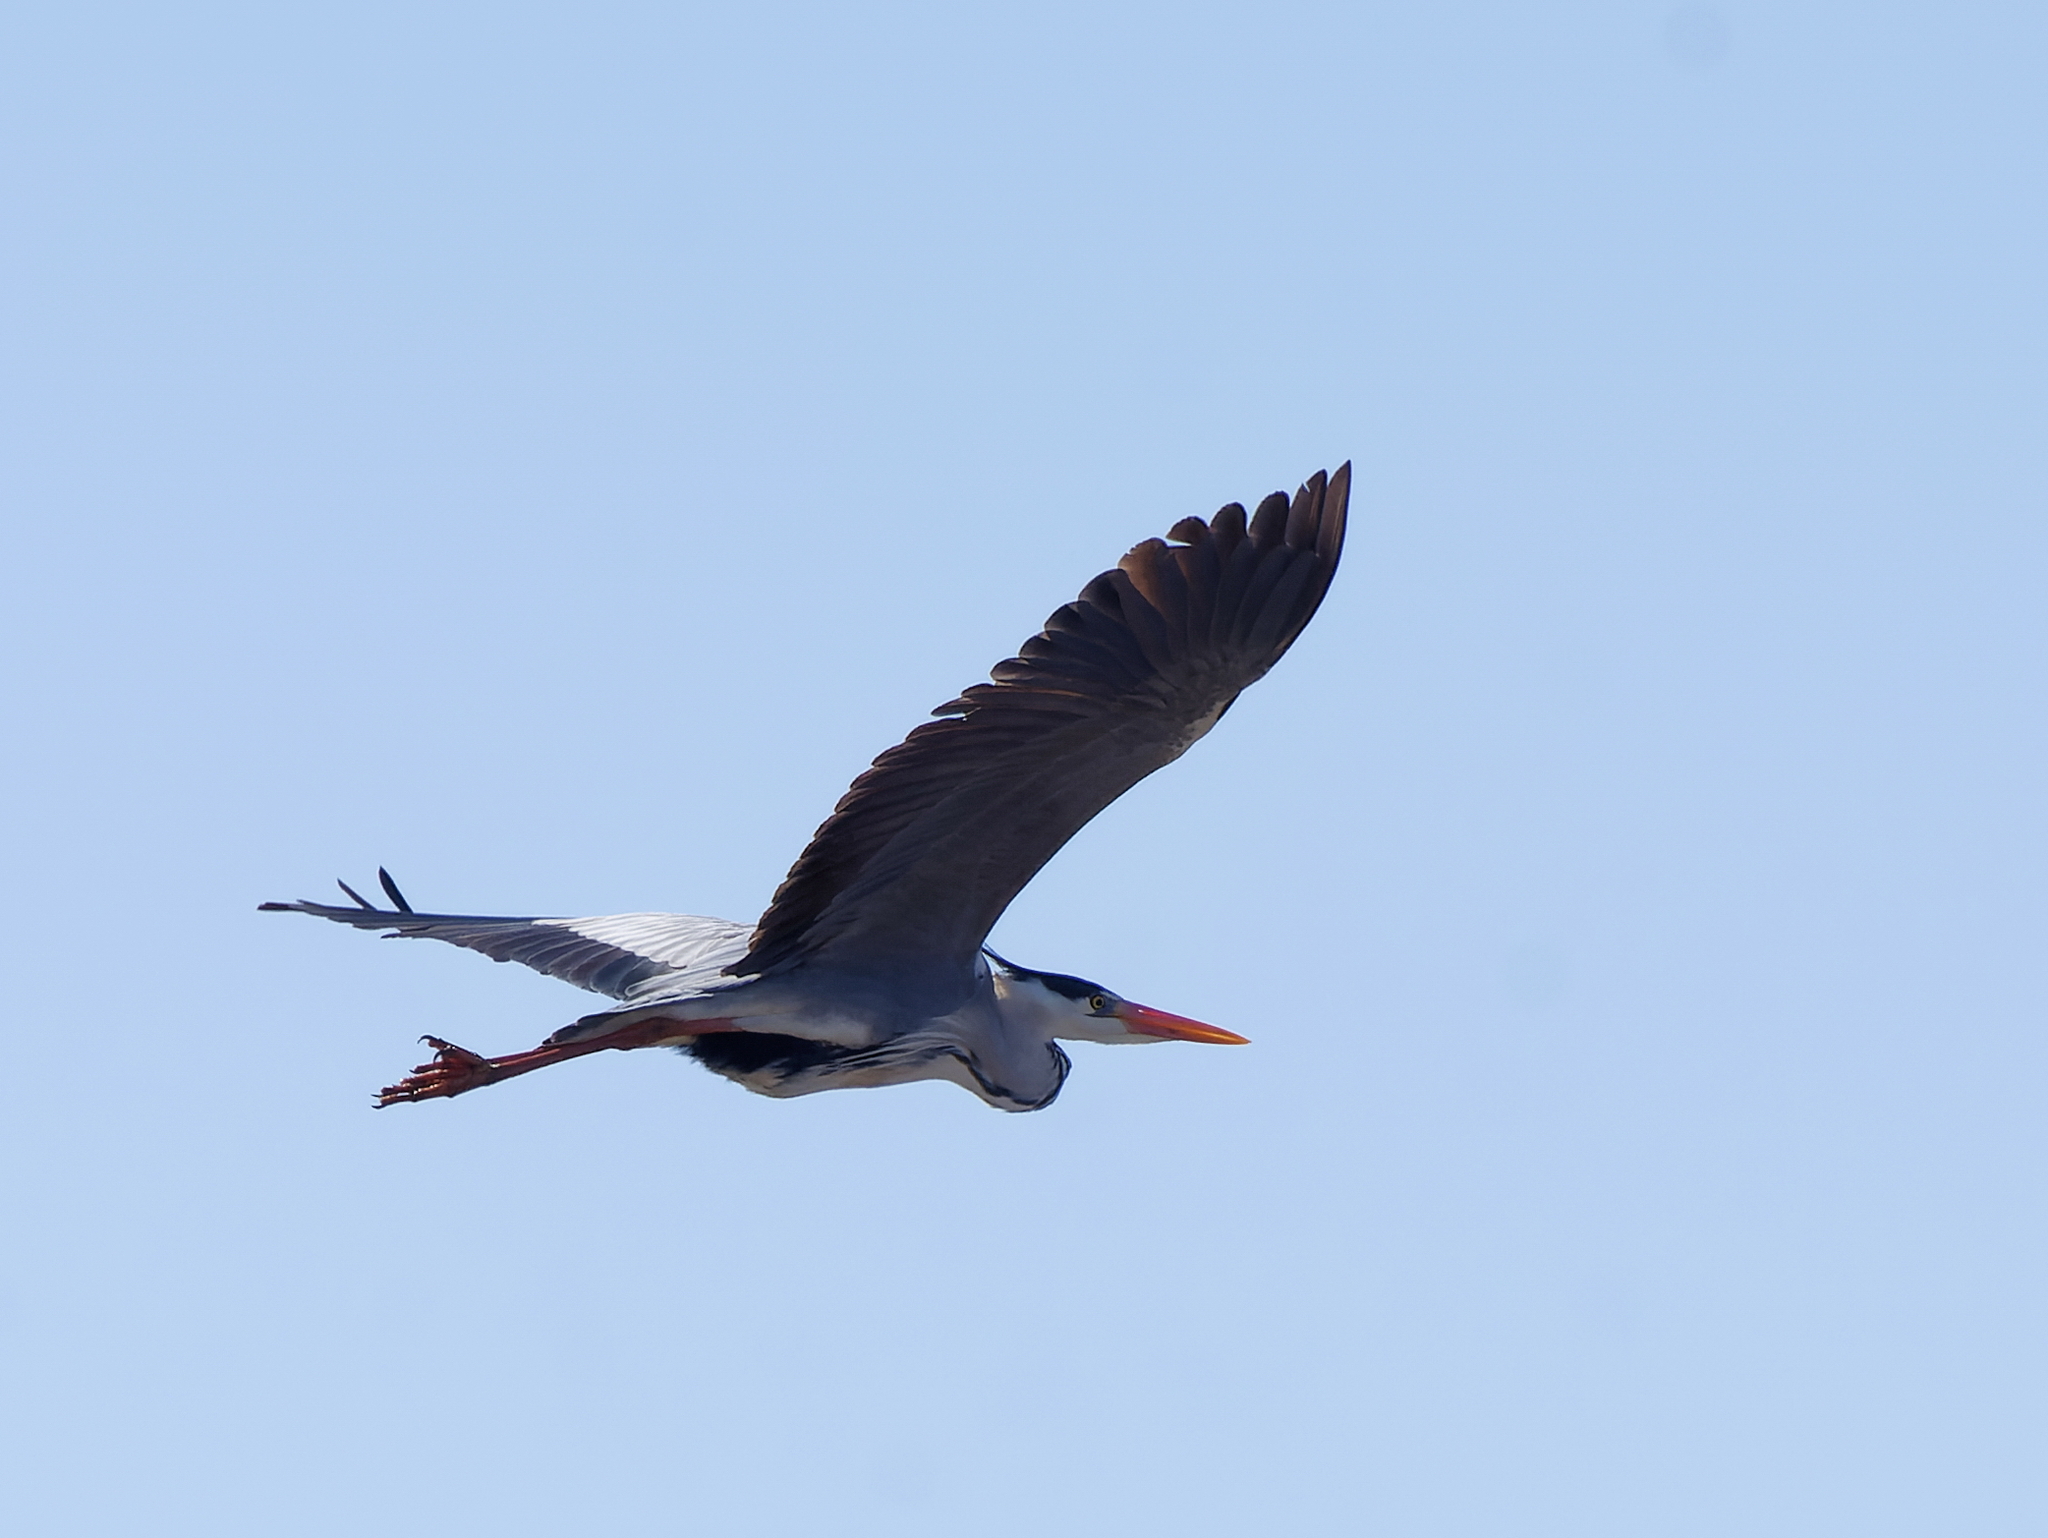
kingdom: Animalia
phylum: Chordata
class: Aves
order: Pelecaniformes
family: Ardeidae
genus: Ardea
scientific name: Ardea cinerea
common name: Grey heron
